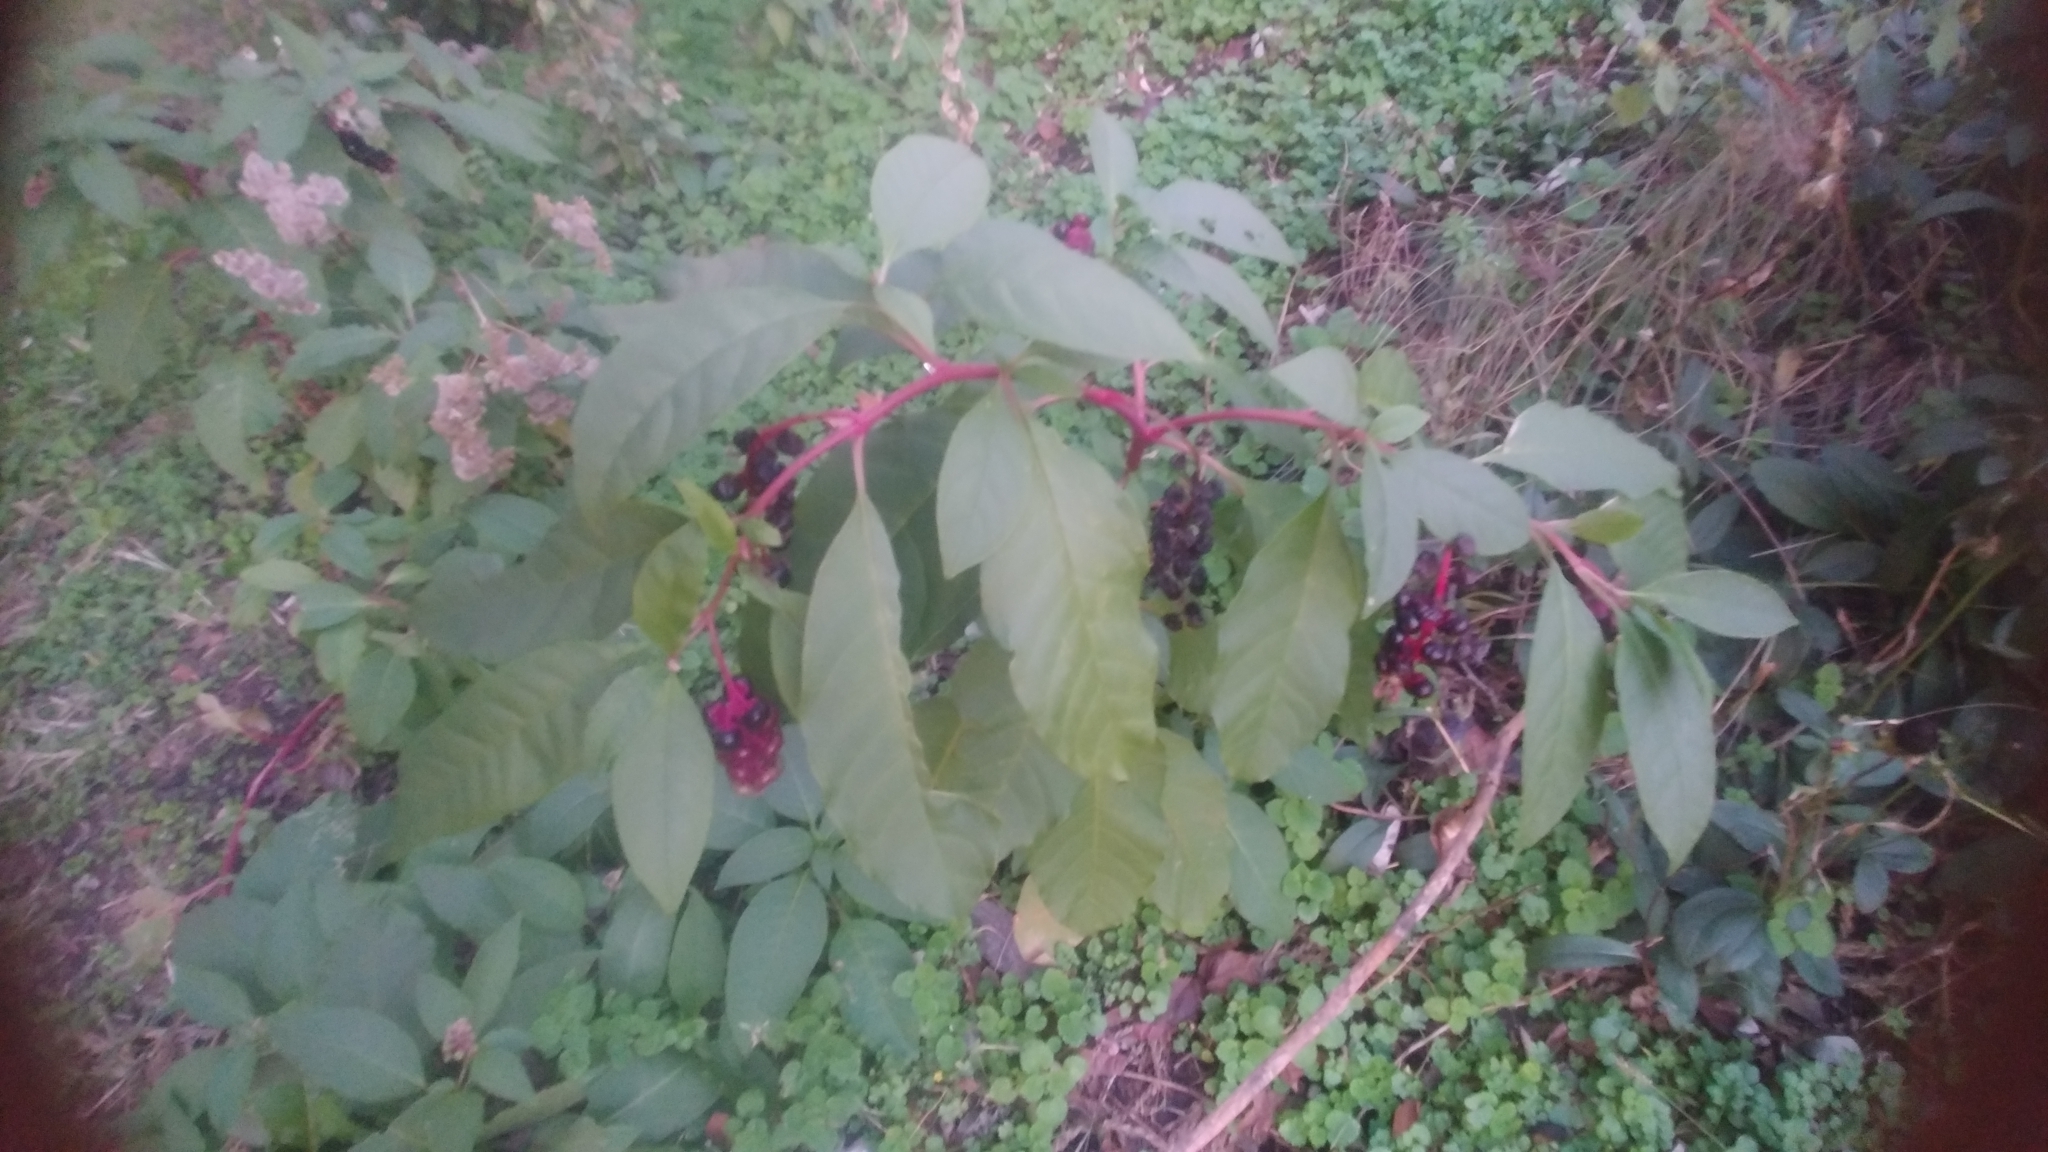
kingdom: Plantae
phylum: Tracheophyta
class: Magnoliopsida
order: Caryophyllales
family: Phytolaccaceae
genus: Phytolacca
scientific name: Phytolacca americana
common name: American pokeweed
